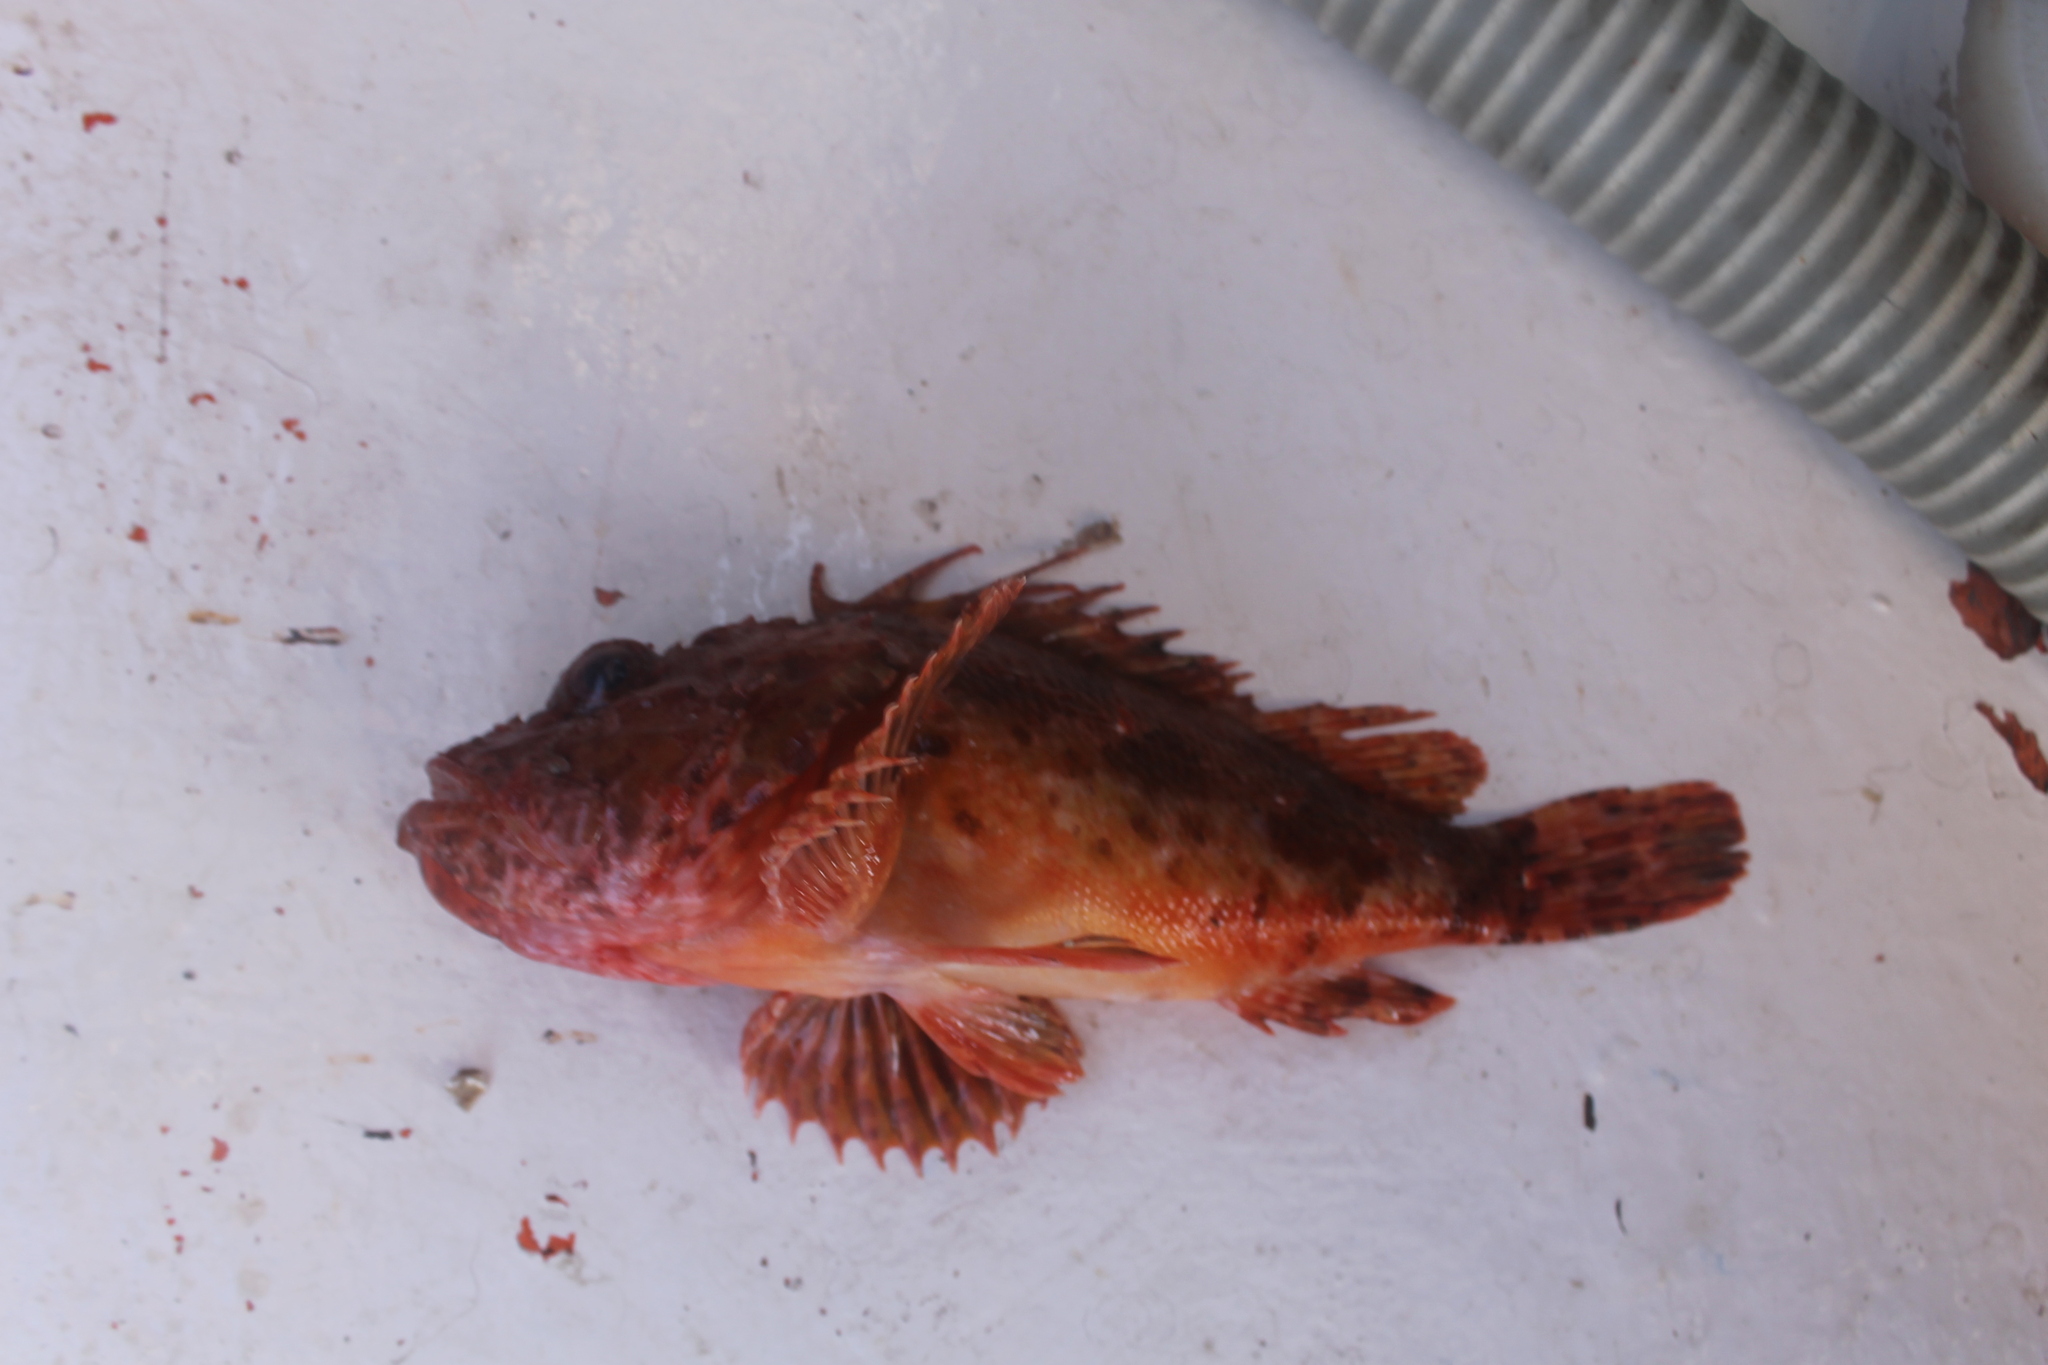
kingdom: Animalia
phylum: Chordata
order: Scorpaeniformes
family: Scorpaenidae
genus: Scorpaena
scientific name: Scorpaena scrofa
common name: Red scorpionfish
